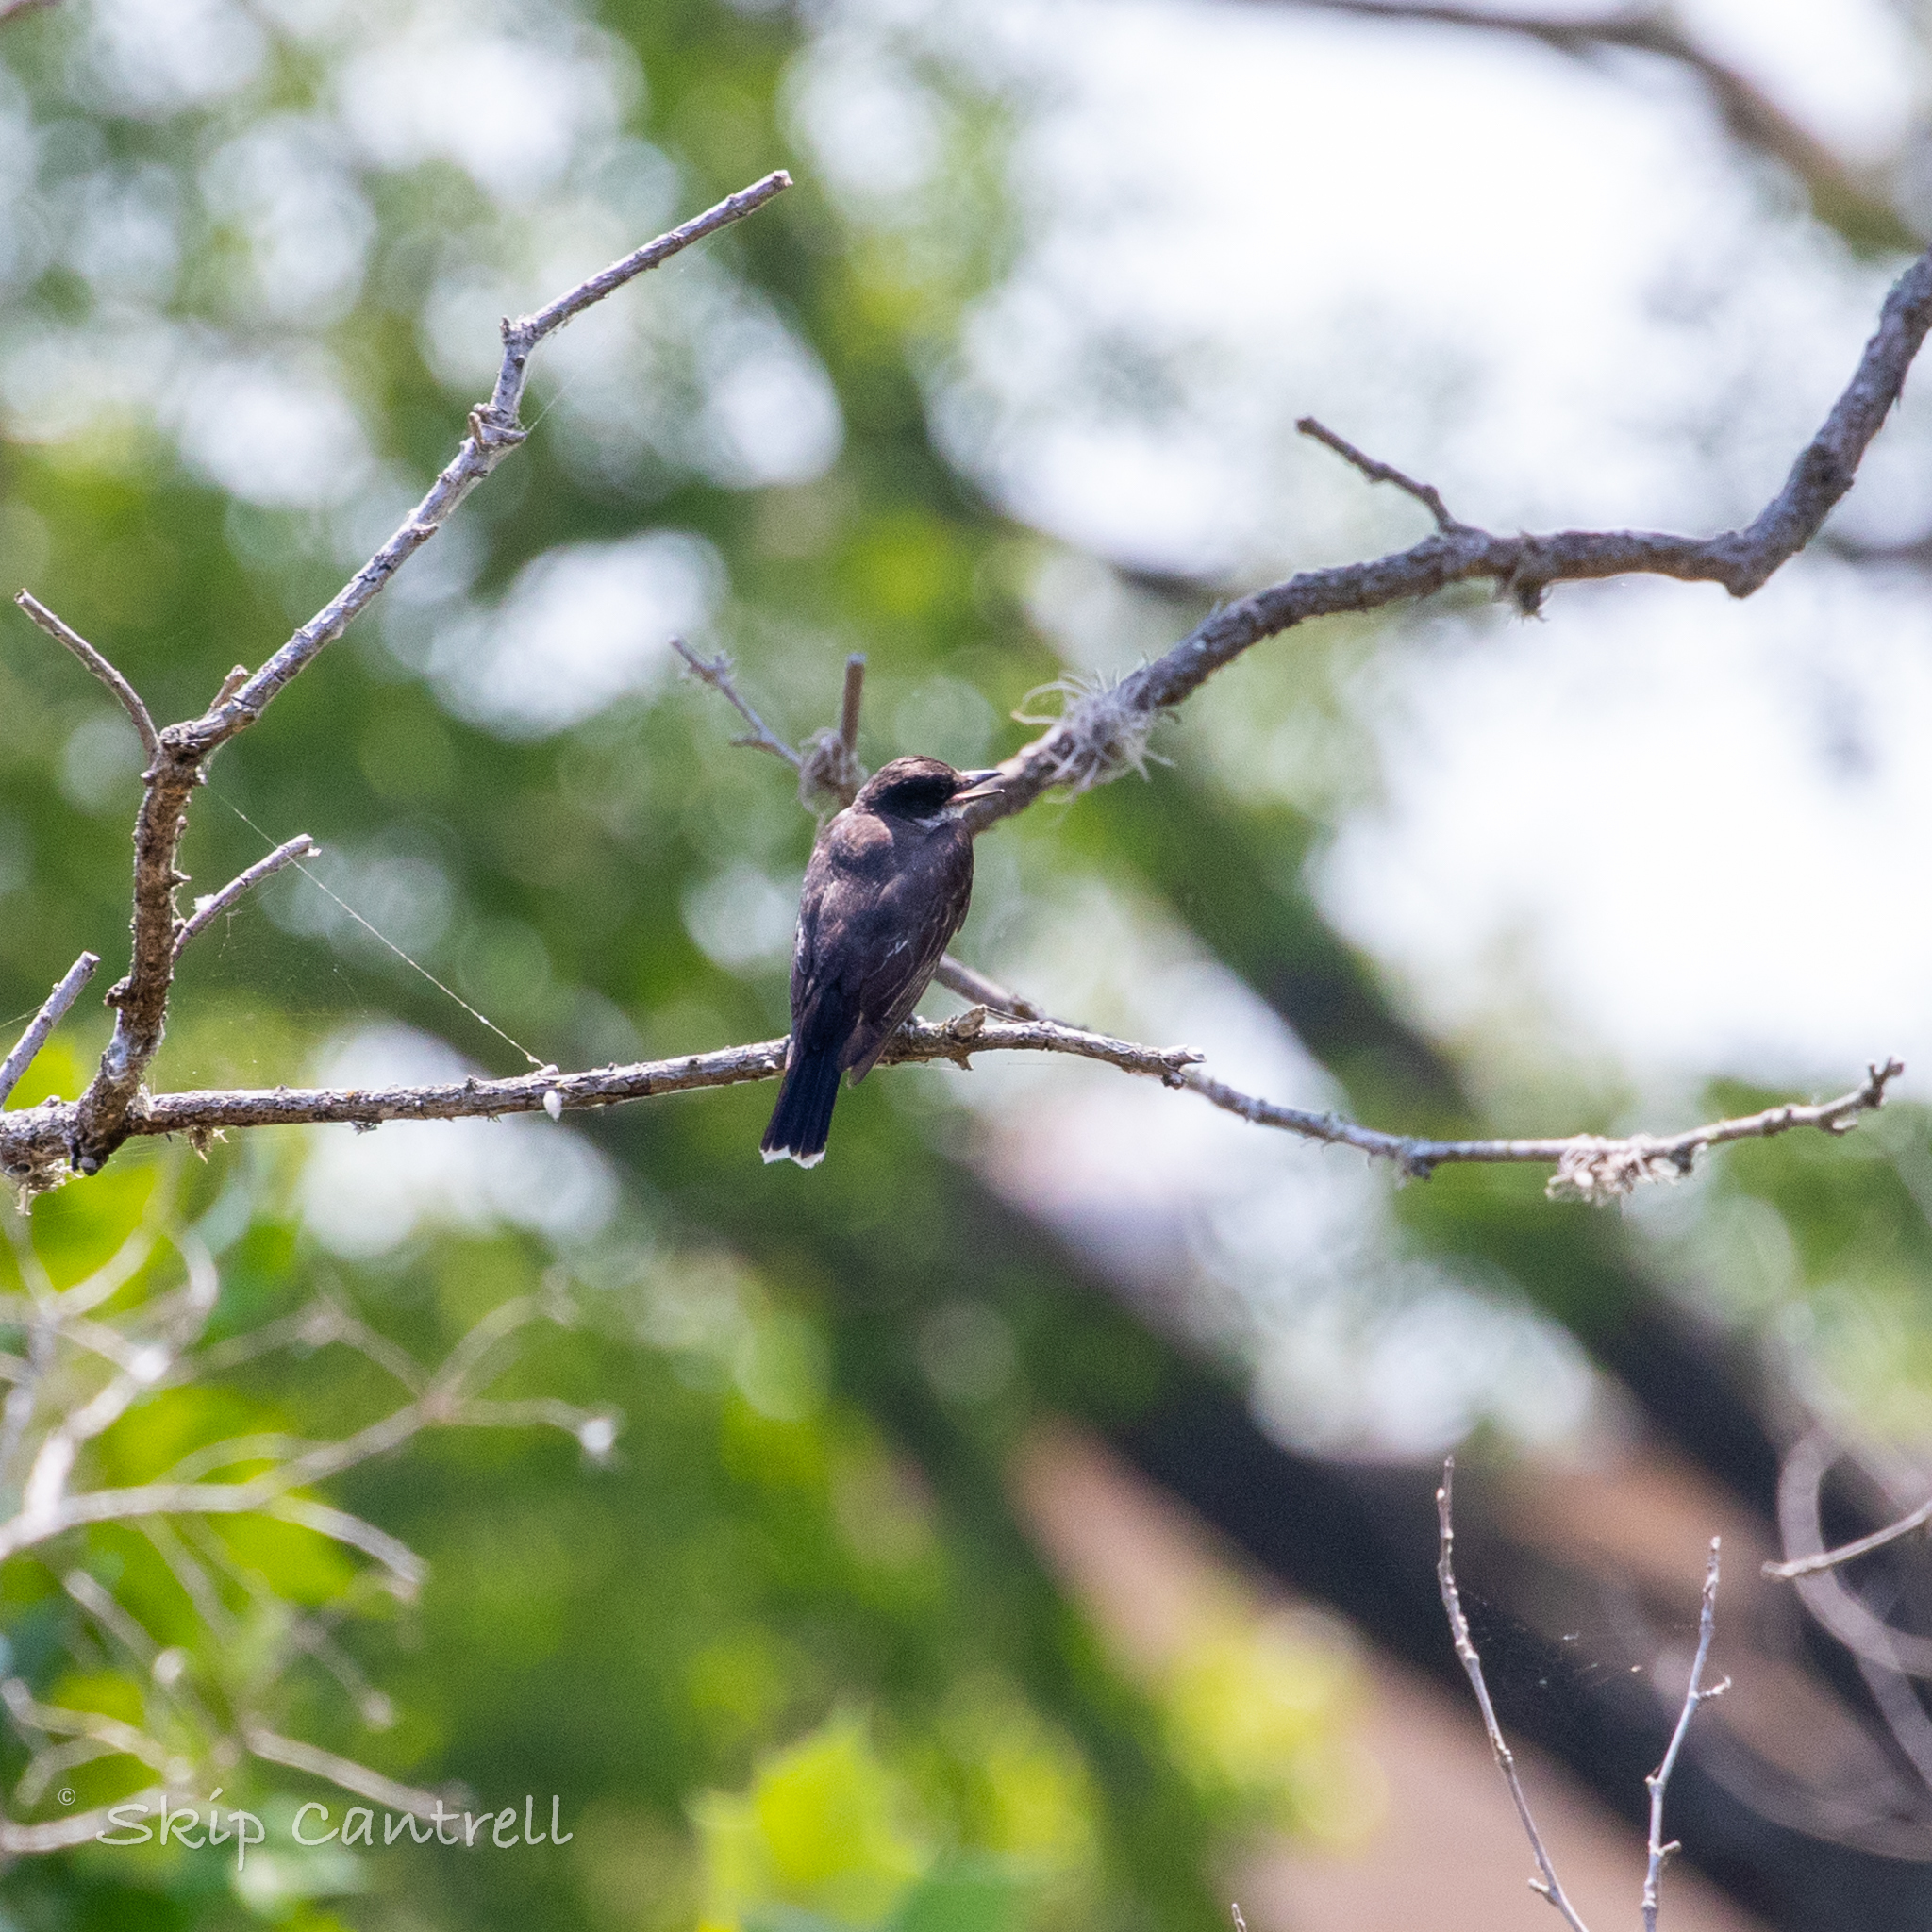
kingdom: Animalia
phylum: Chordata
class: Aves
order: Passeriformes
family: Tyrannidae
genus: Tyrannus
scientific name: Tyrannus tyrannus
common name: Eastern kingbird
